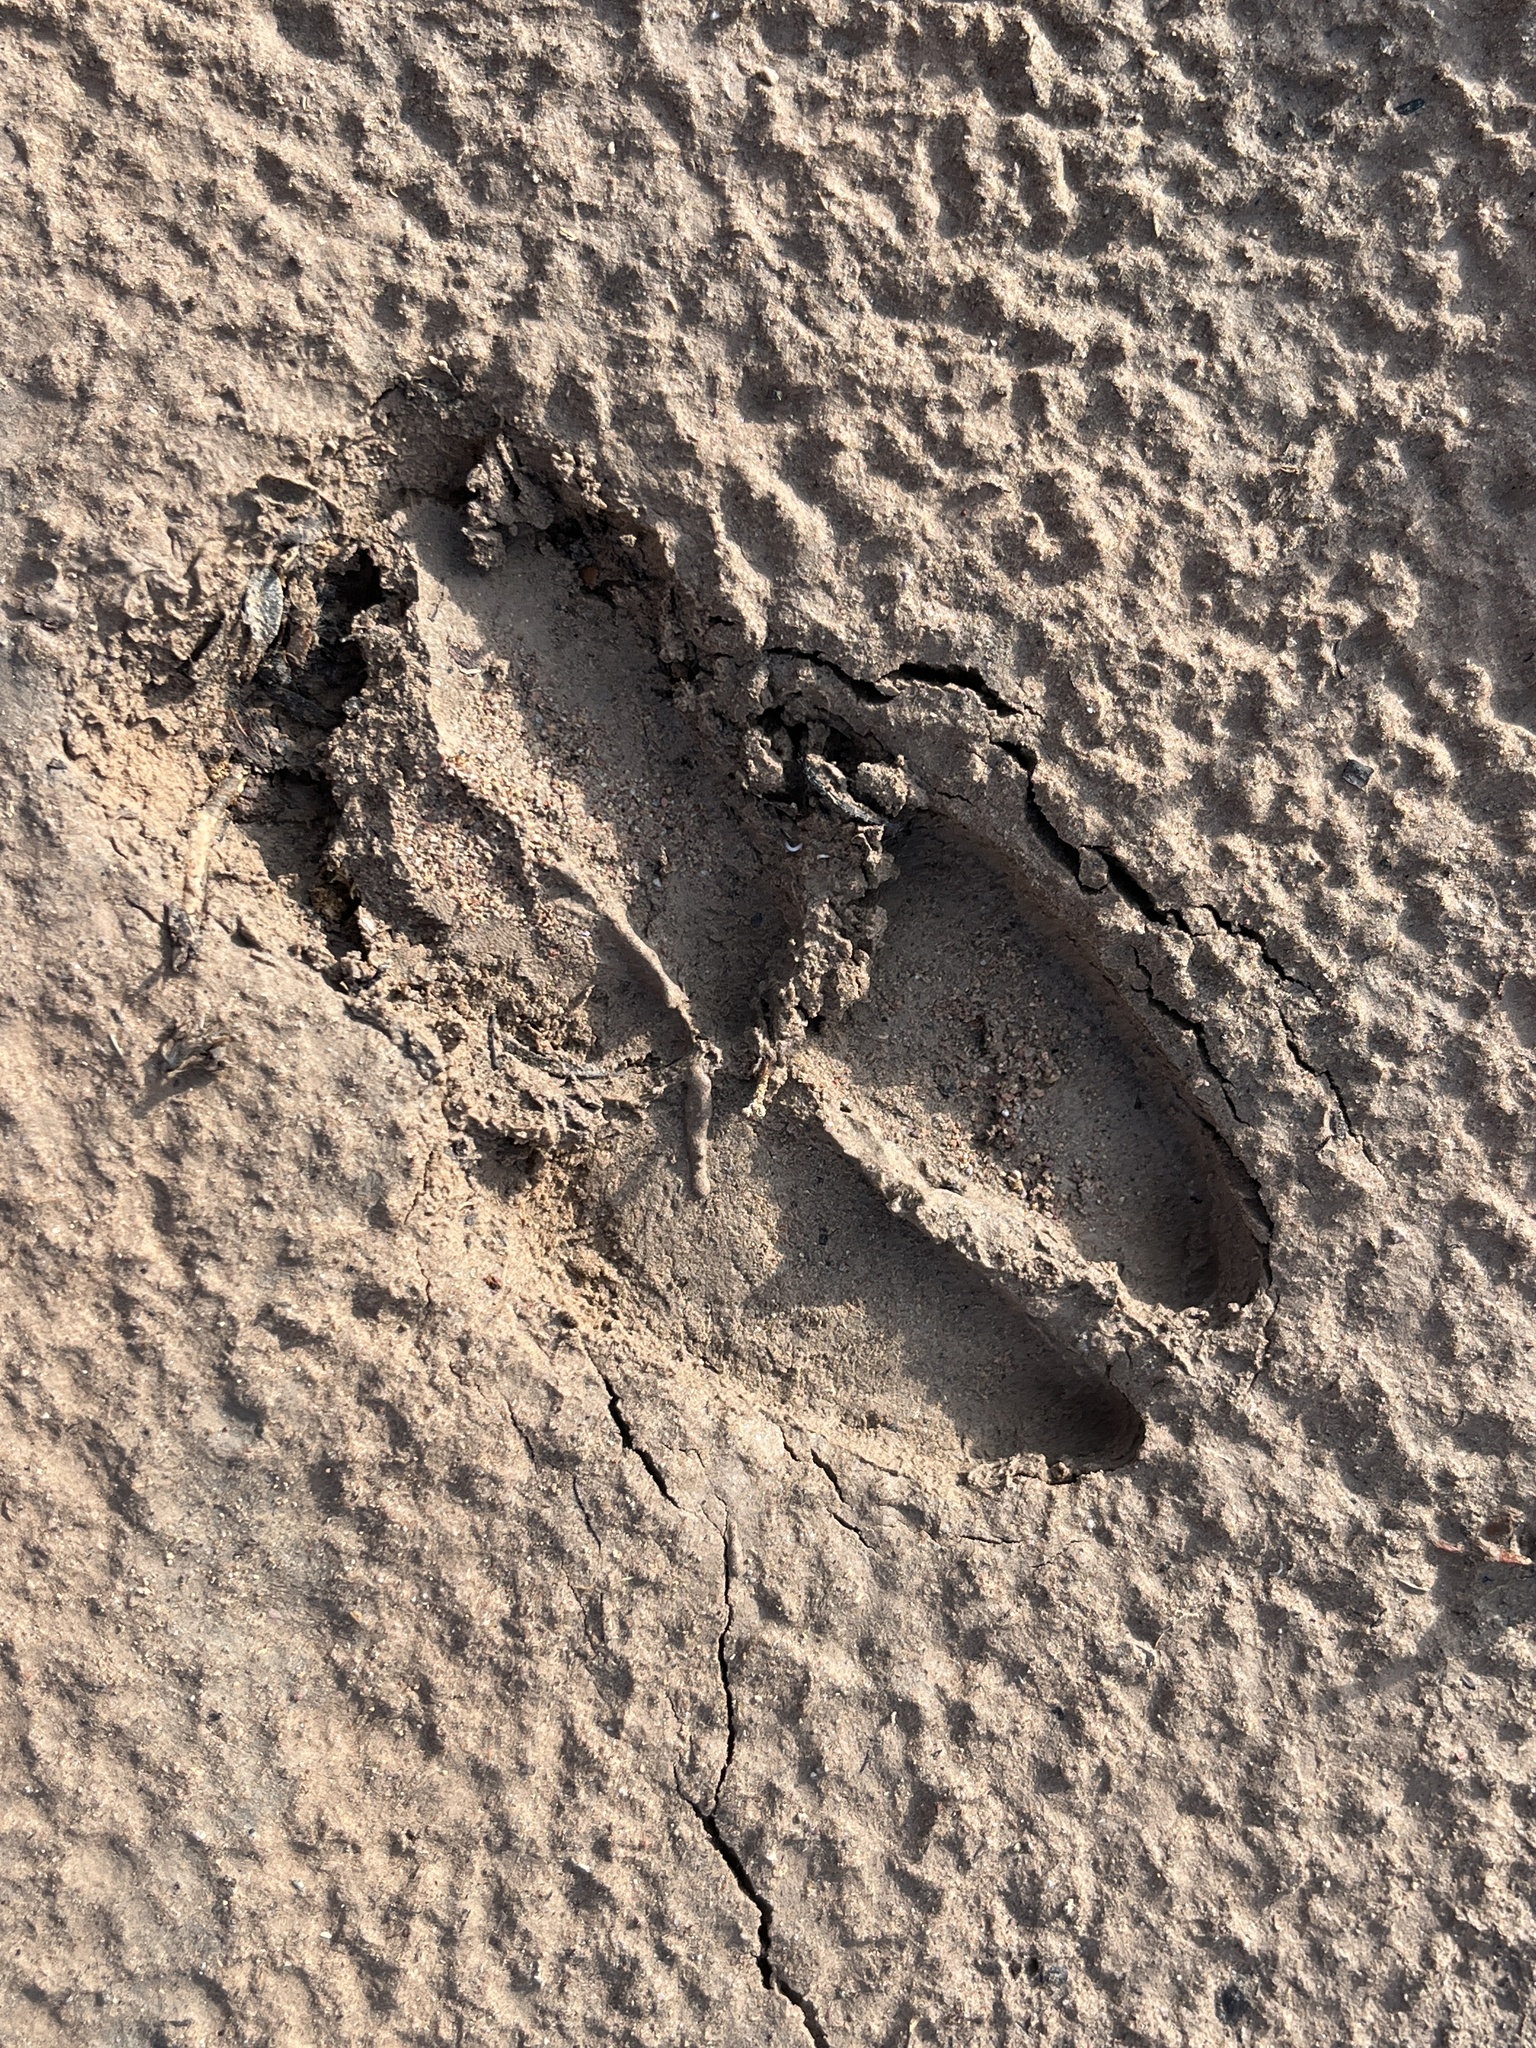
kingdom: Animalia
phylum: Chordata
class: Mammalia
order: Artiodactyla
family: Bovidae
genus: Ovis
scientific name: Ovis canadensis
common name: Bighorn sheep
